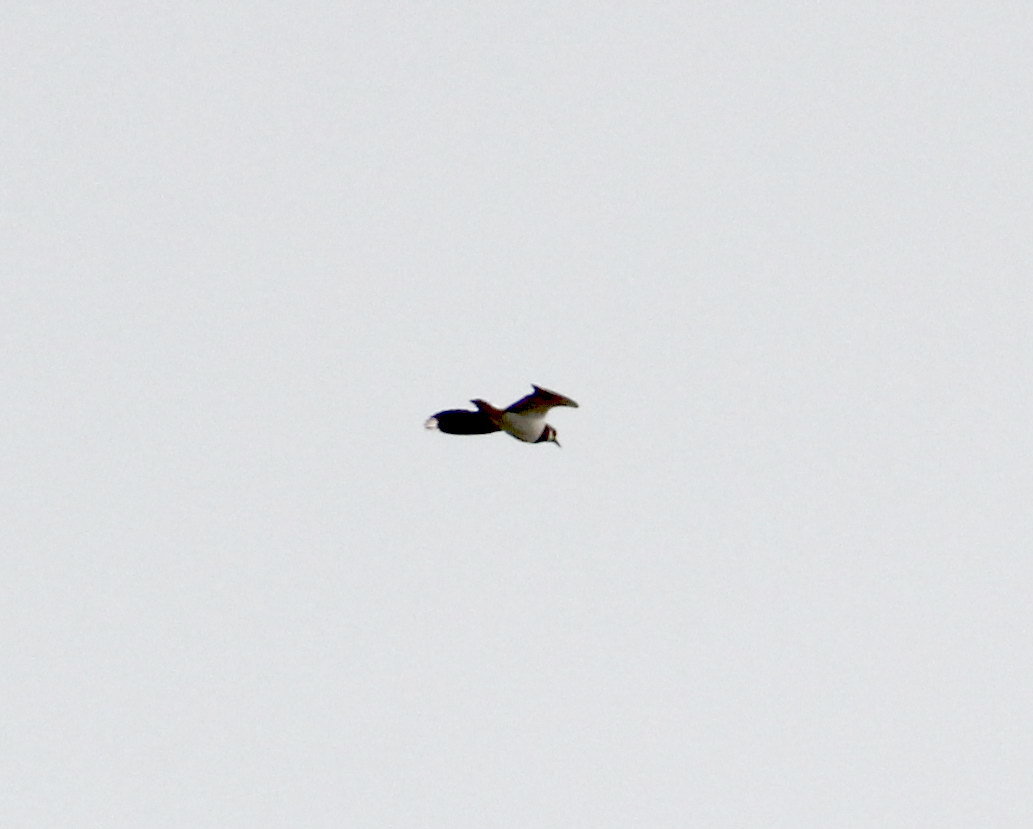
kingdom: Animalia
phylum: Chordata
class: Aves
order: Charadriiformes
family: Charadriidae
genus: Vanellus
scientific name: Vanellus vanellus
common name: Northern lapwing
